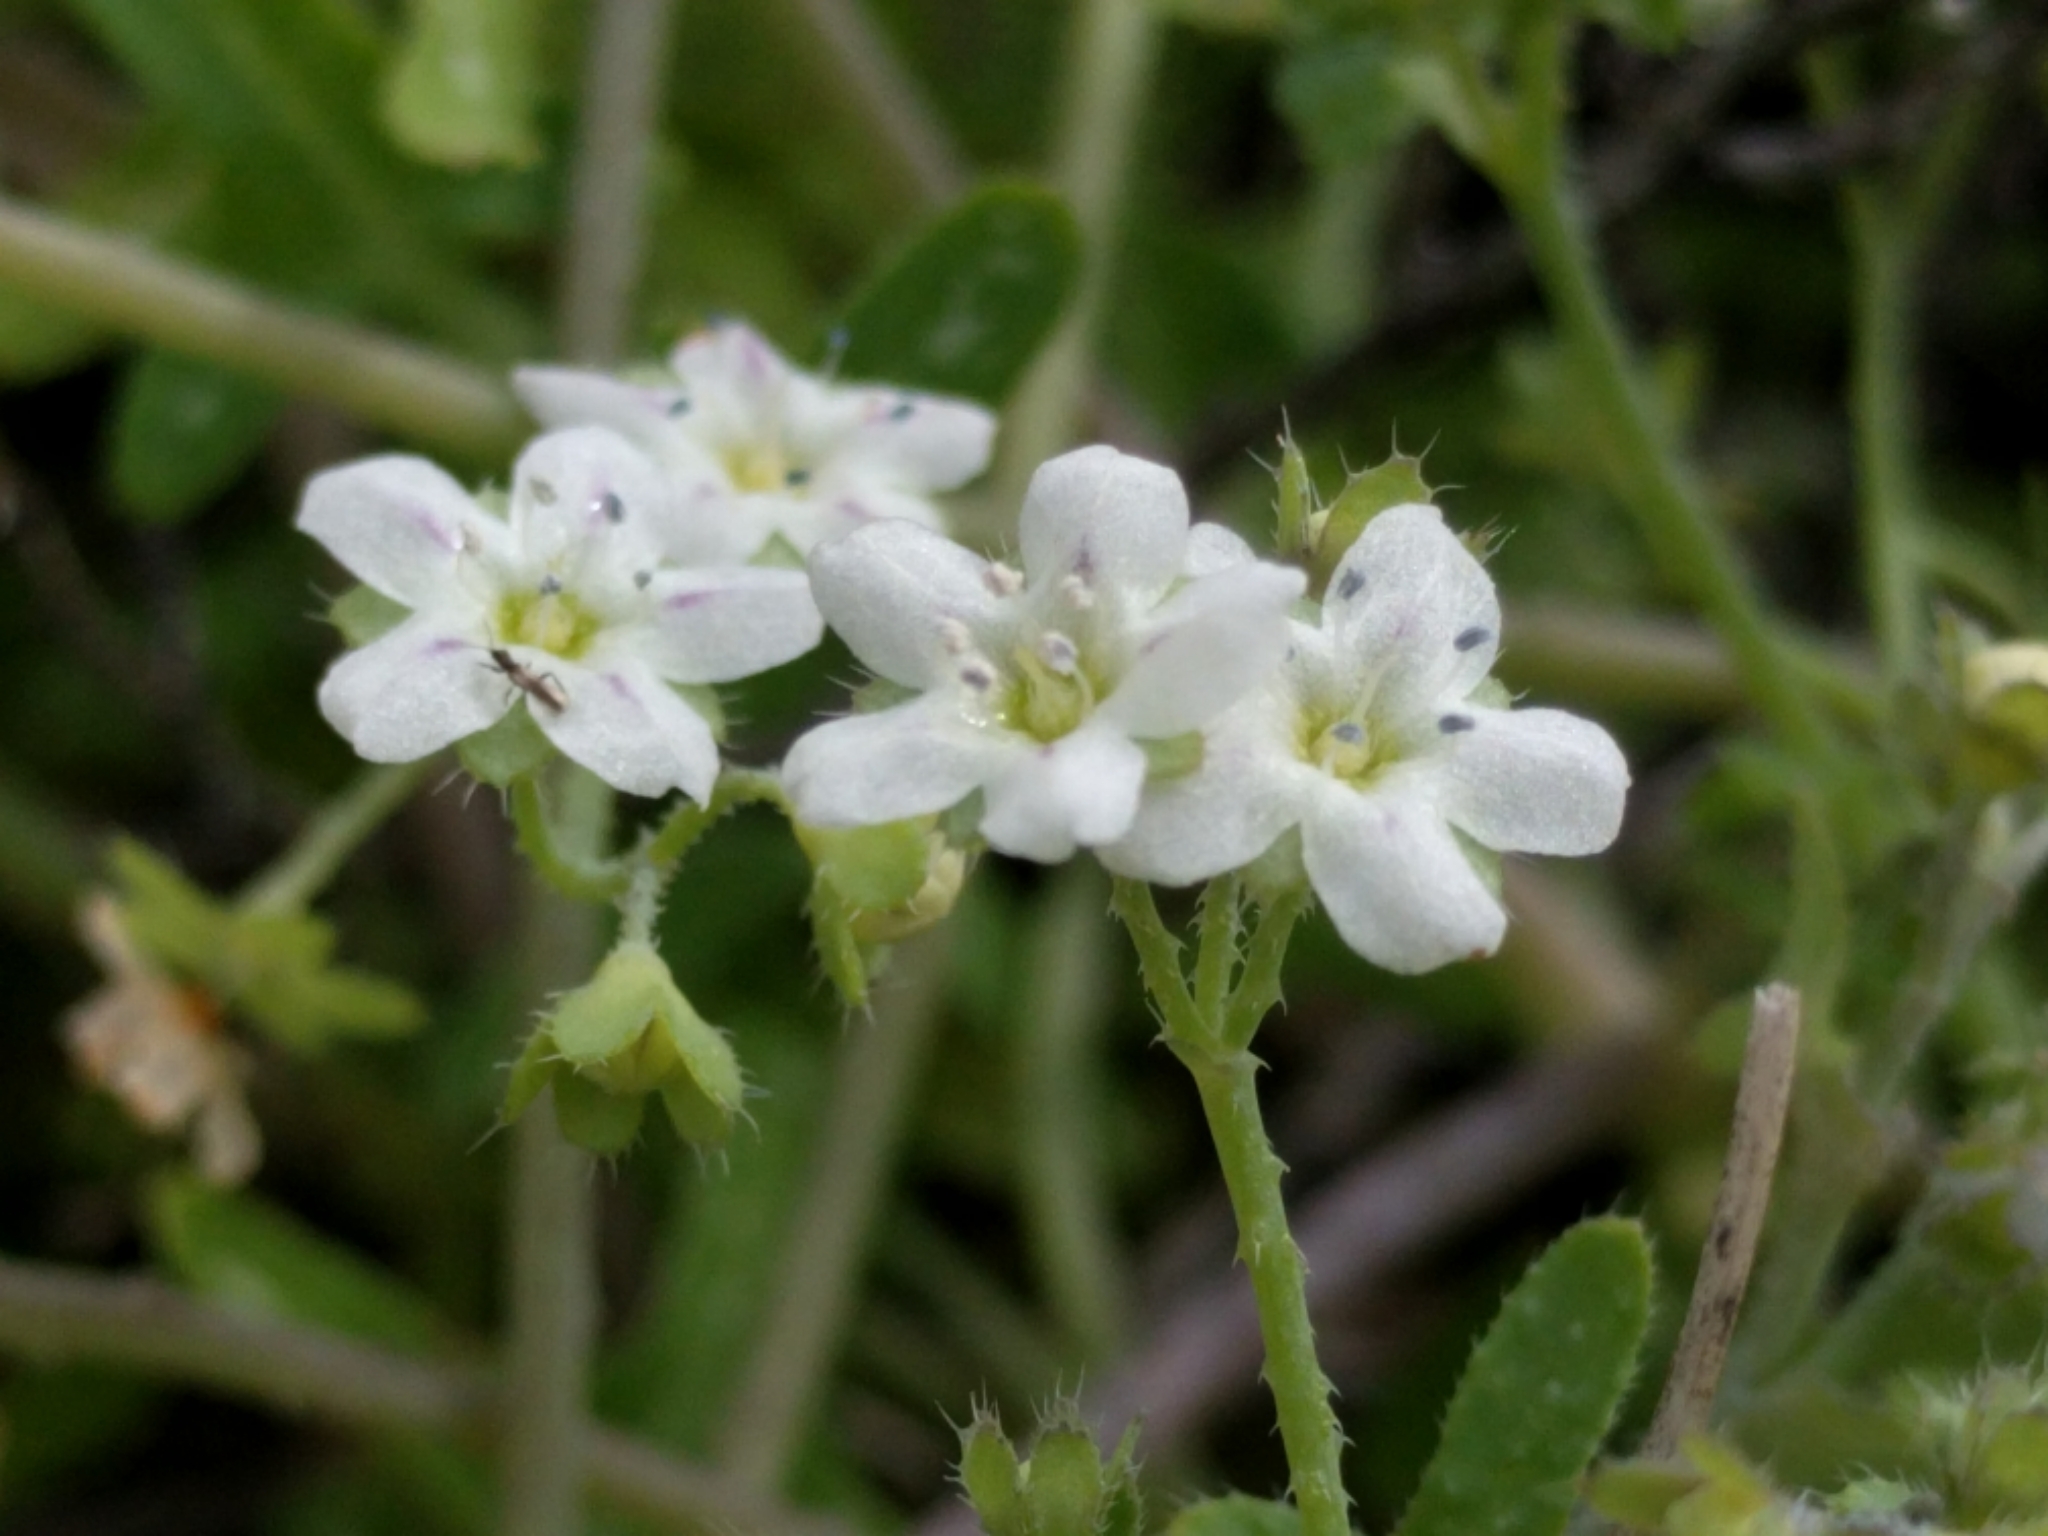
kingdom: Plantae
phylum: Tracheophyta
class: Magnoliopsida
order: Boraginales
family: Hydrophyllaceae
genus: Pholistoma
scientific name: Pholistoma membranaceum
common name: White fiesta-flower
